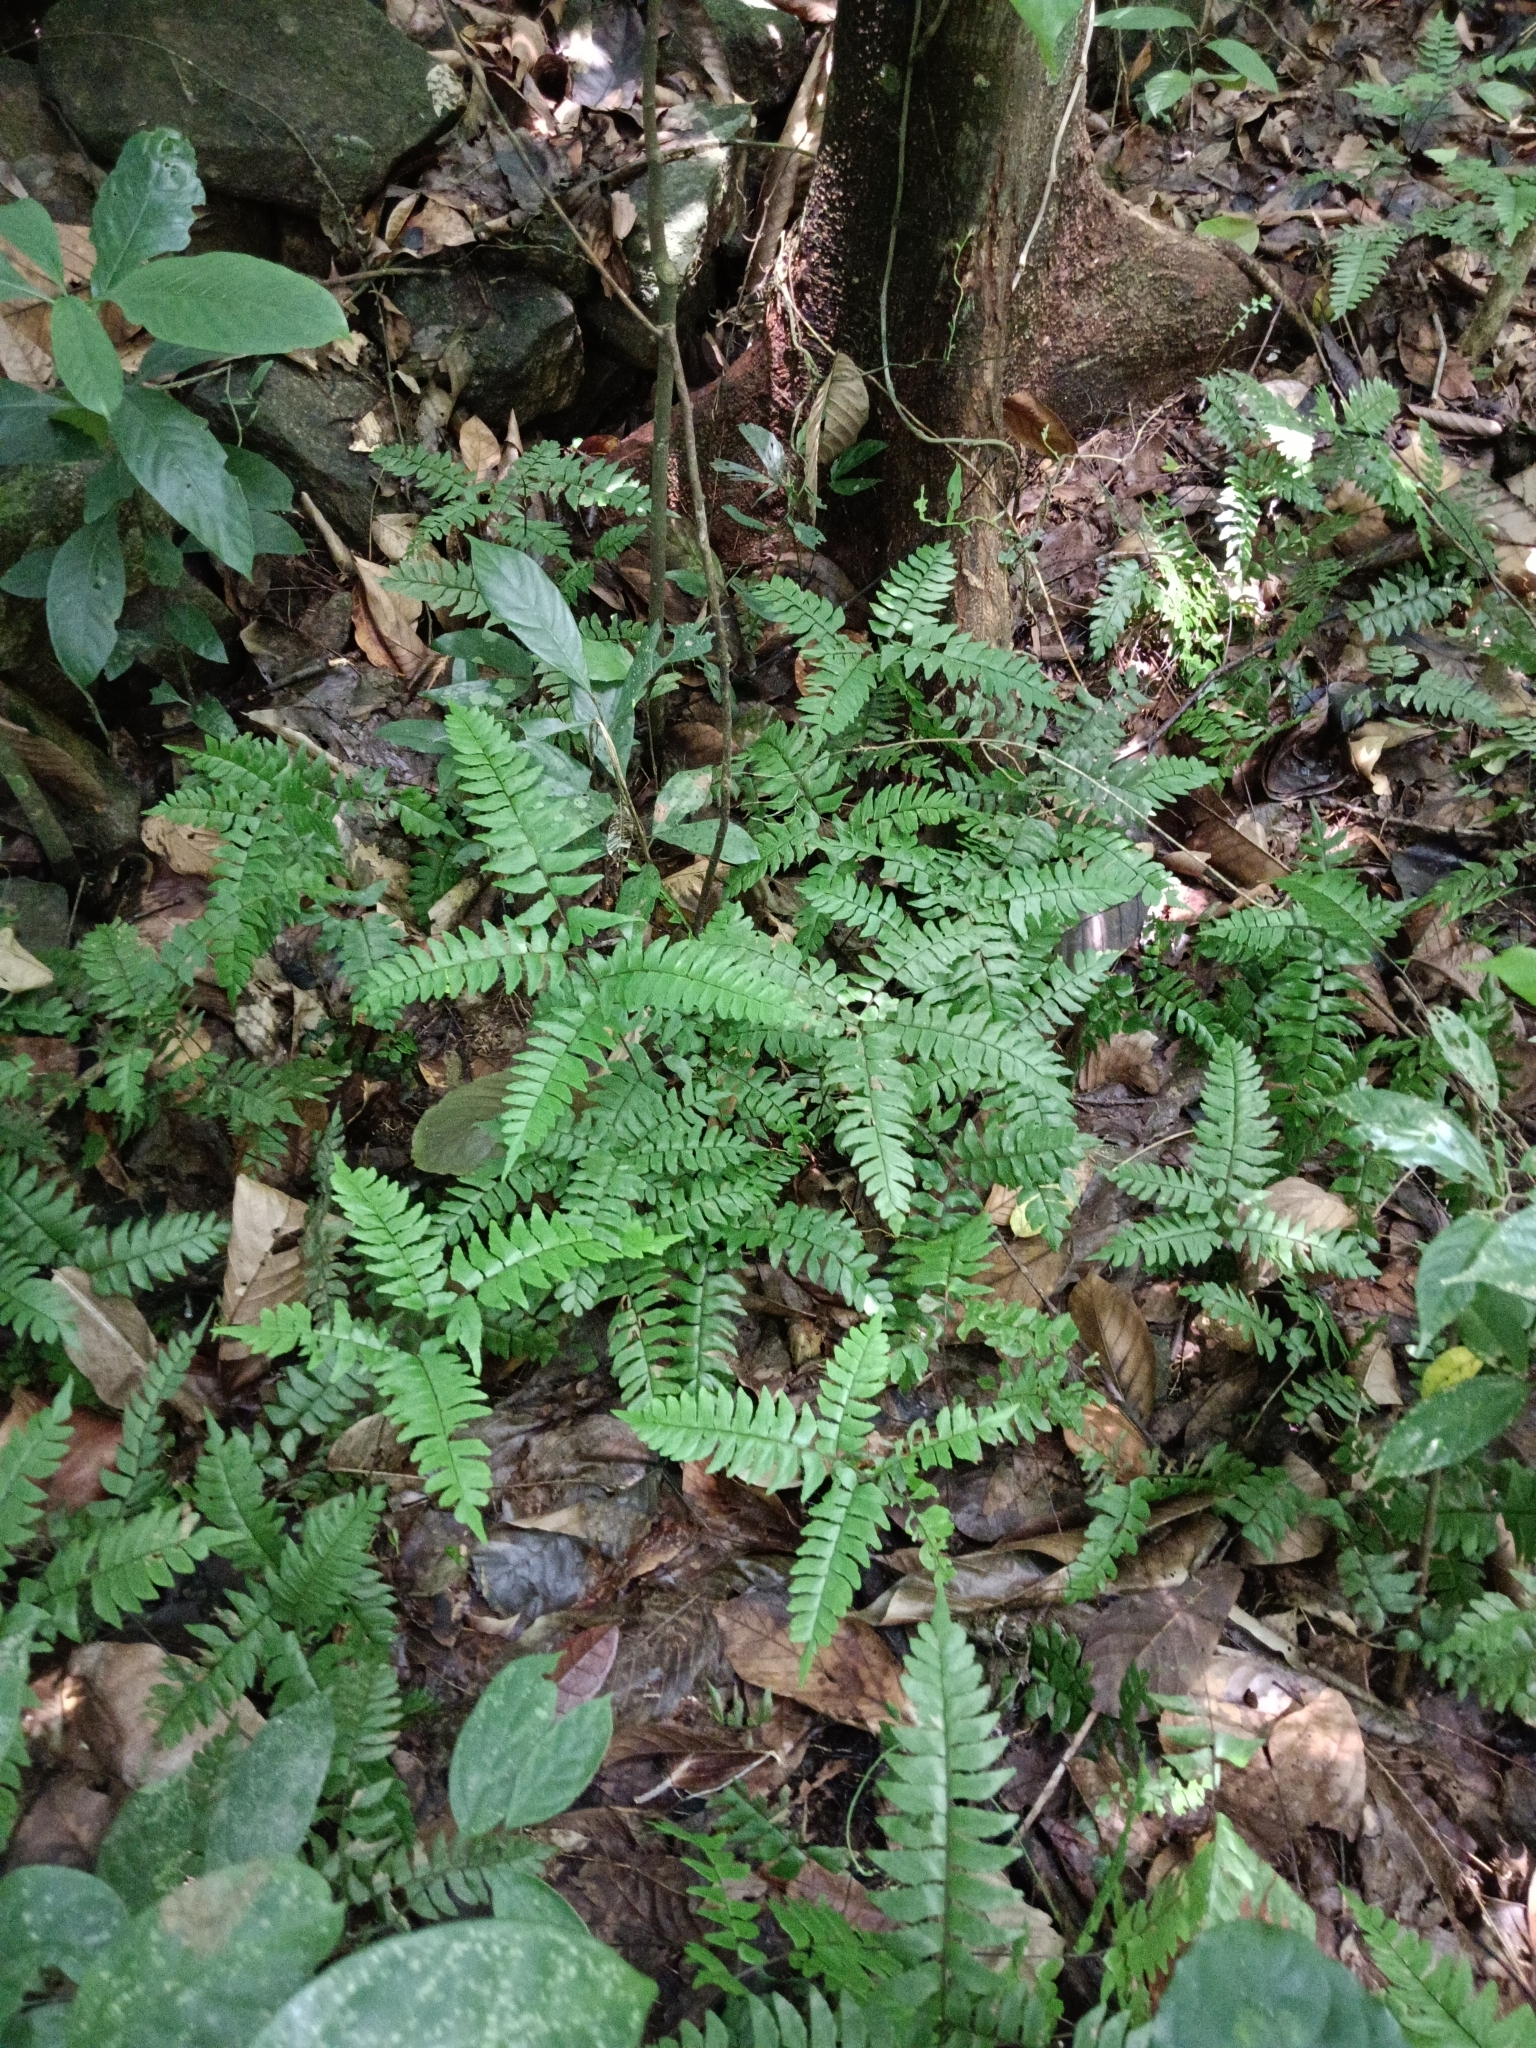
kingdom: Plantae
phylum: Tracheophyta
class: Polypodiopsida
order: Polypodiales
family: Pteridaceae
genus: Adiantum
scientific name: Adiantum latifolium
